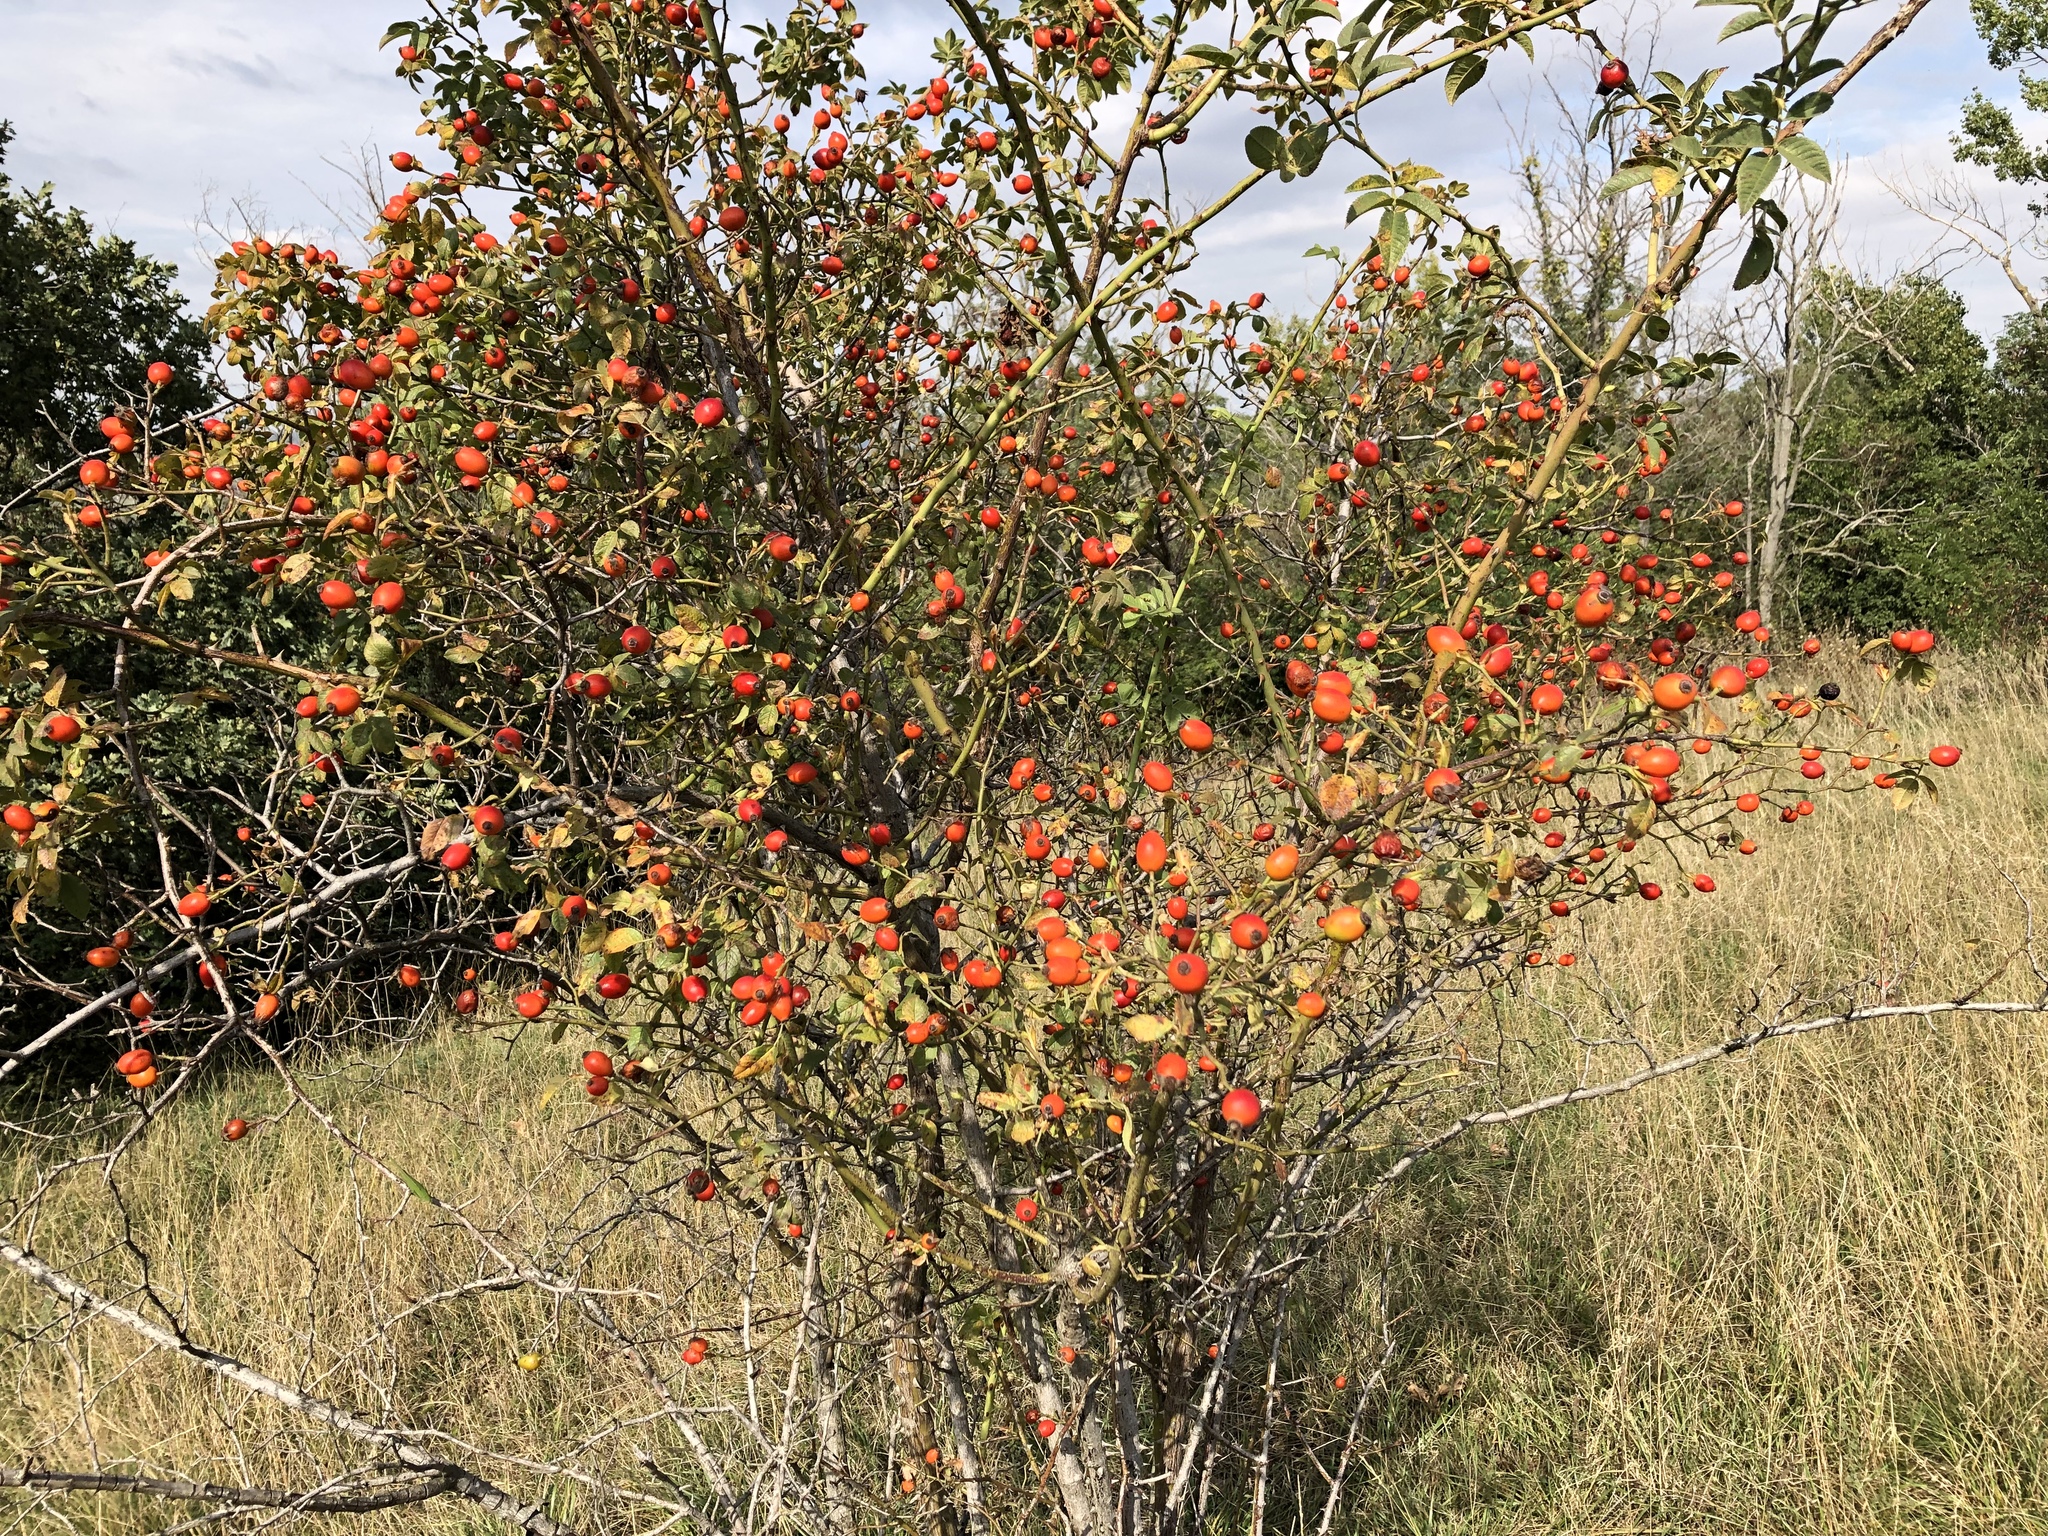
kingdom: Plantae
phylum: Tracheophyta
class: Magnoliopsida
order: Rosales
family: Rosaceae
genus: Rosa
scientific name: Rosa canina
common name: Dog rose
